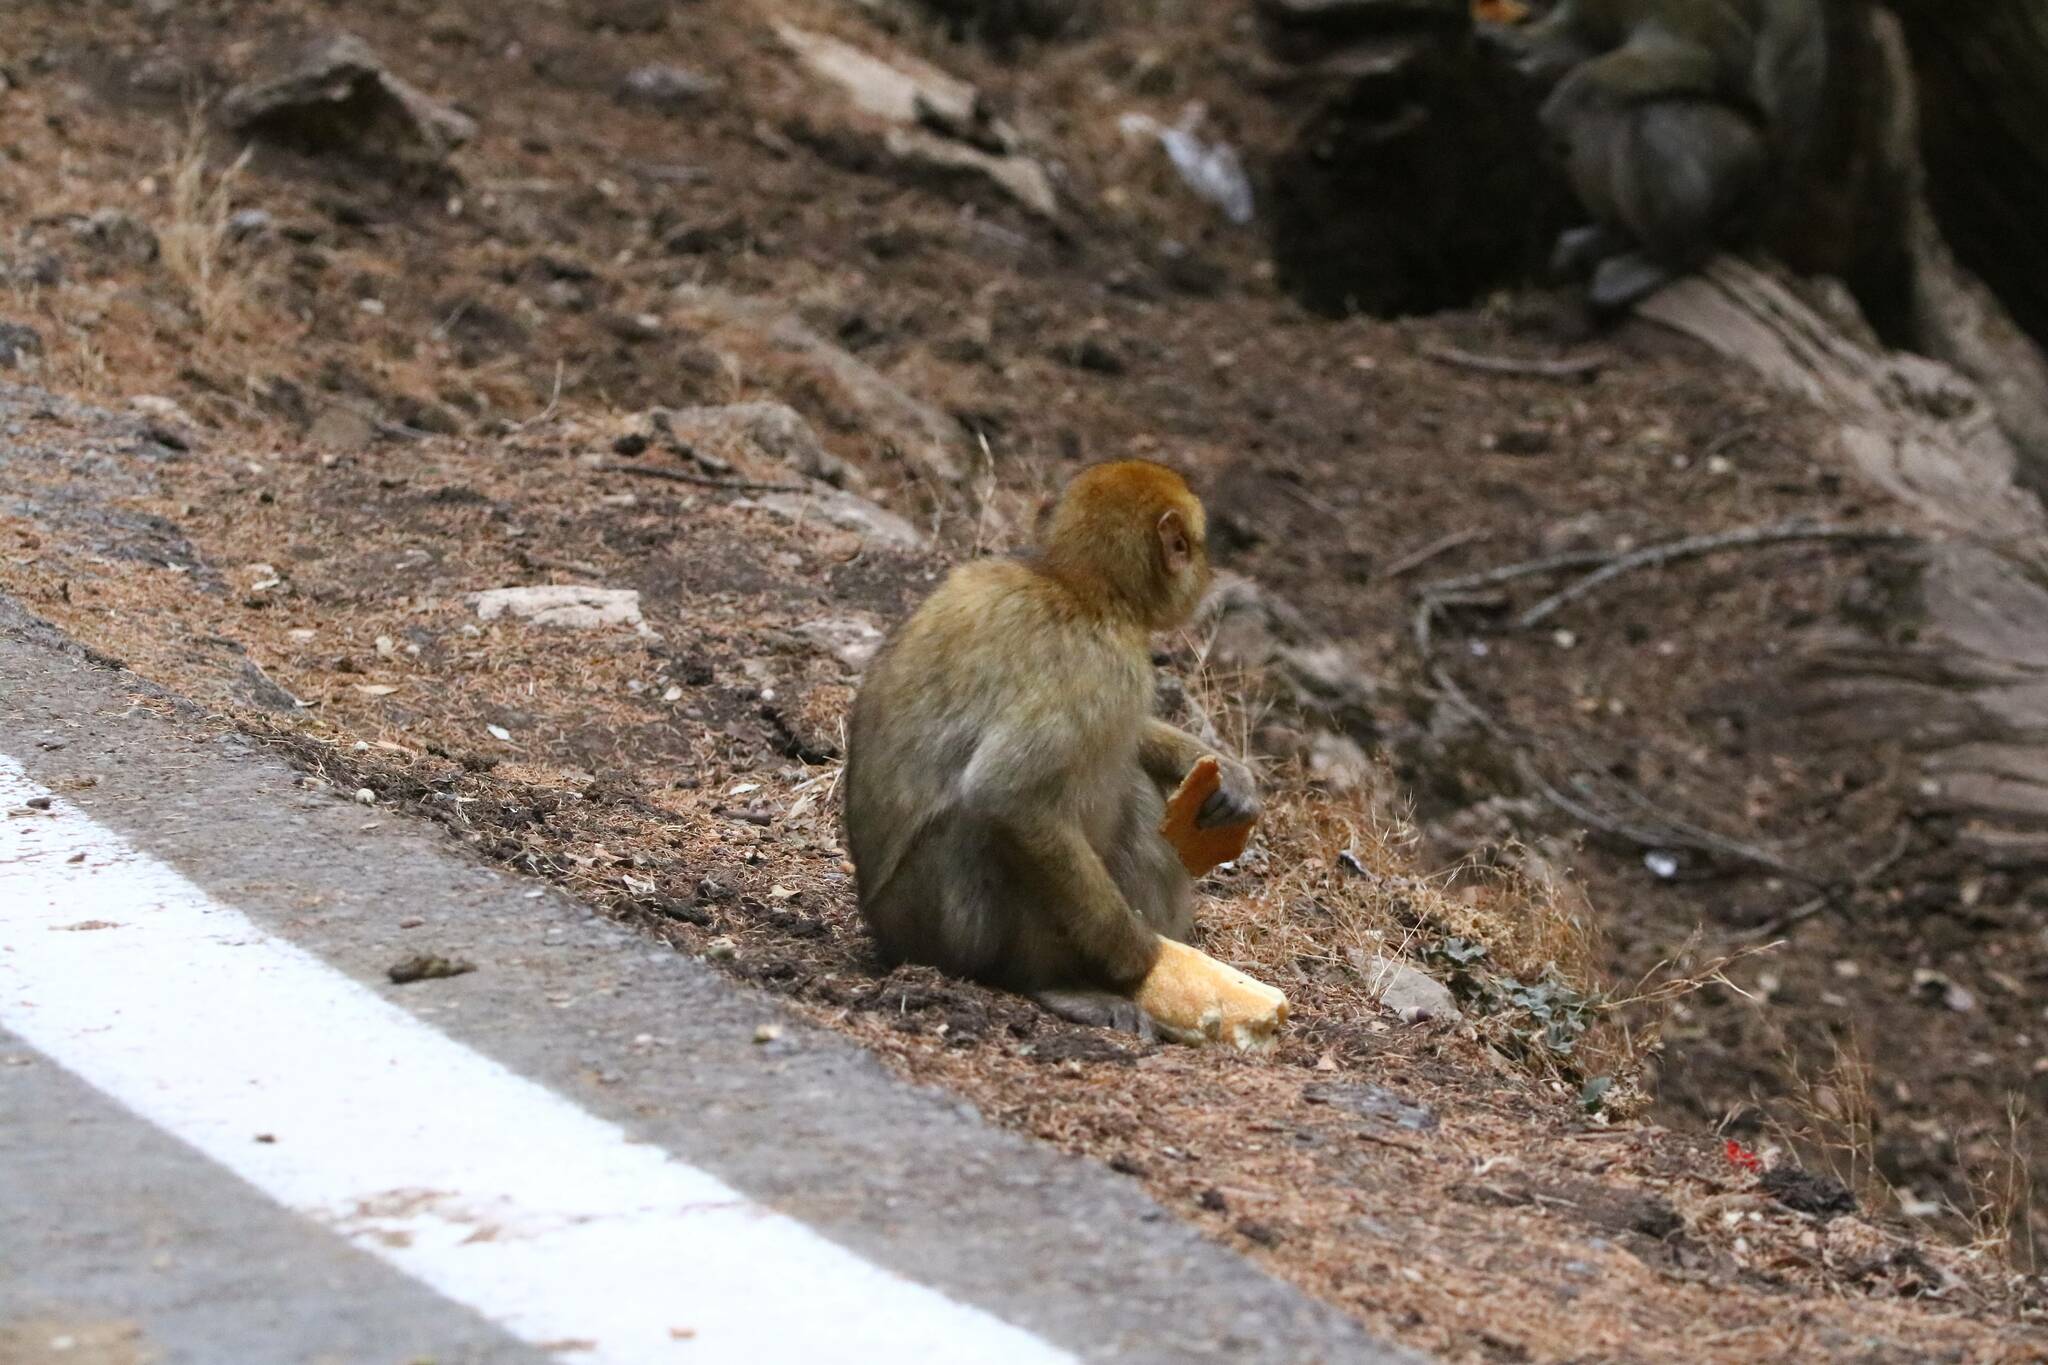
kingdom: Animalia
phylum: Chordata
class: Mammalia
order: Primates
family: Cercopithecidae
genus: Macaca
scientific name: Macaca sylvanus
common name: Barbary macaque
